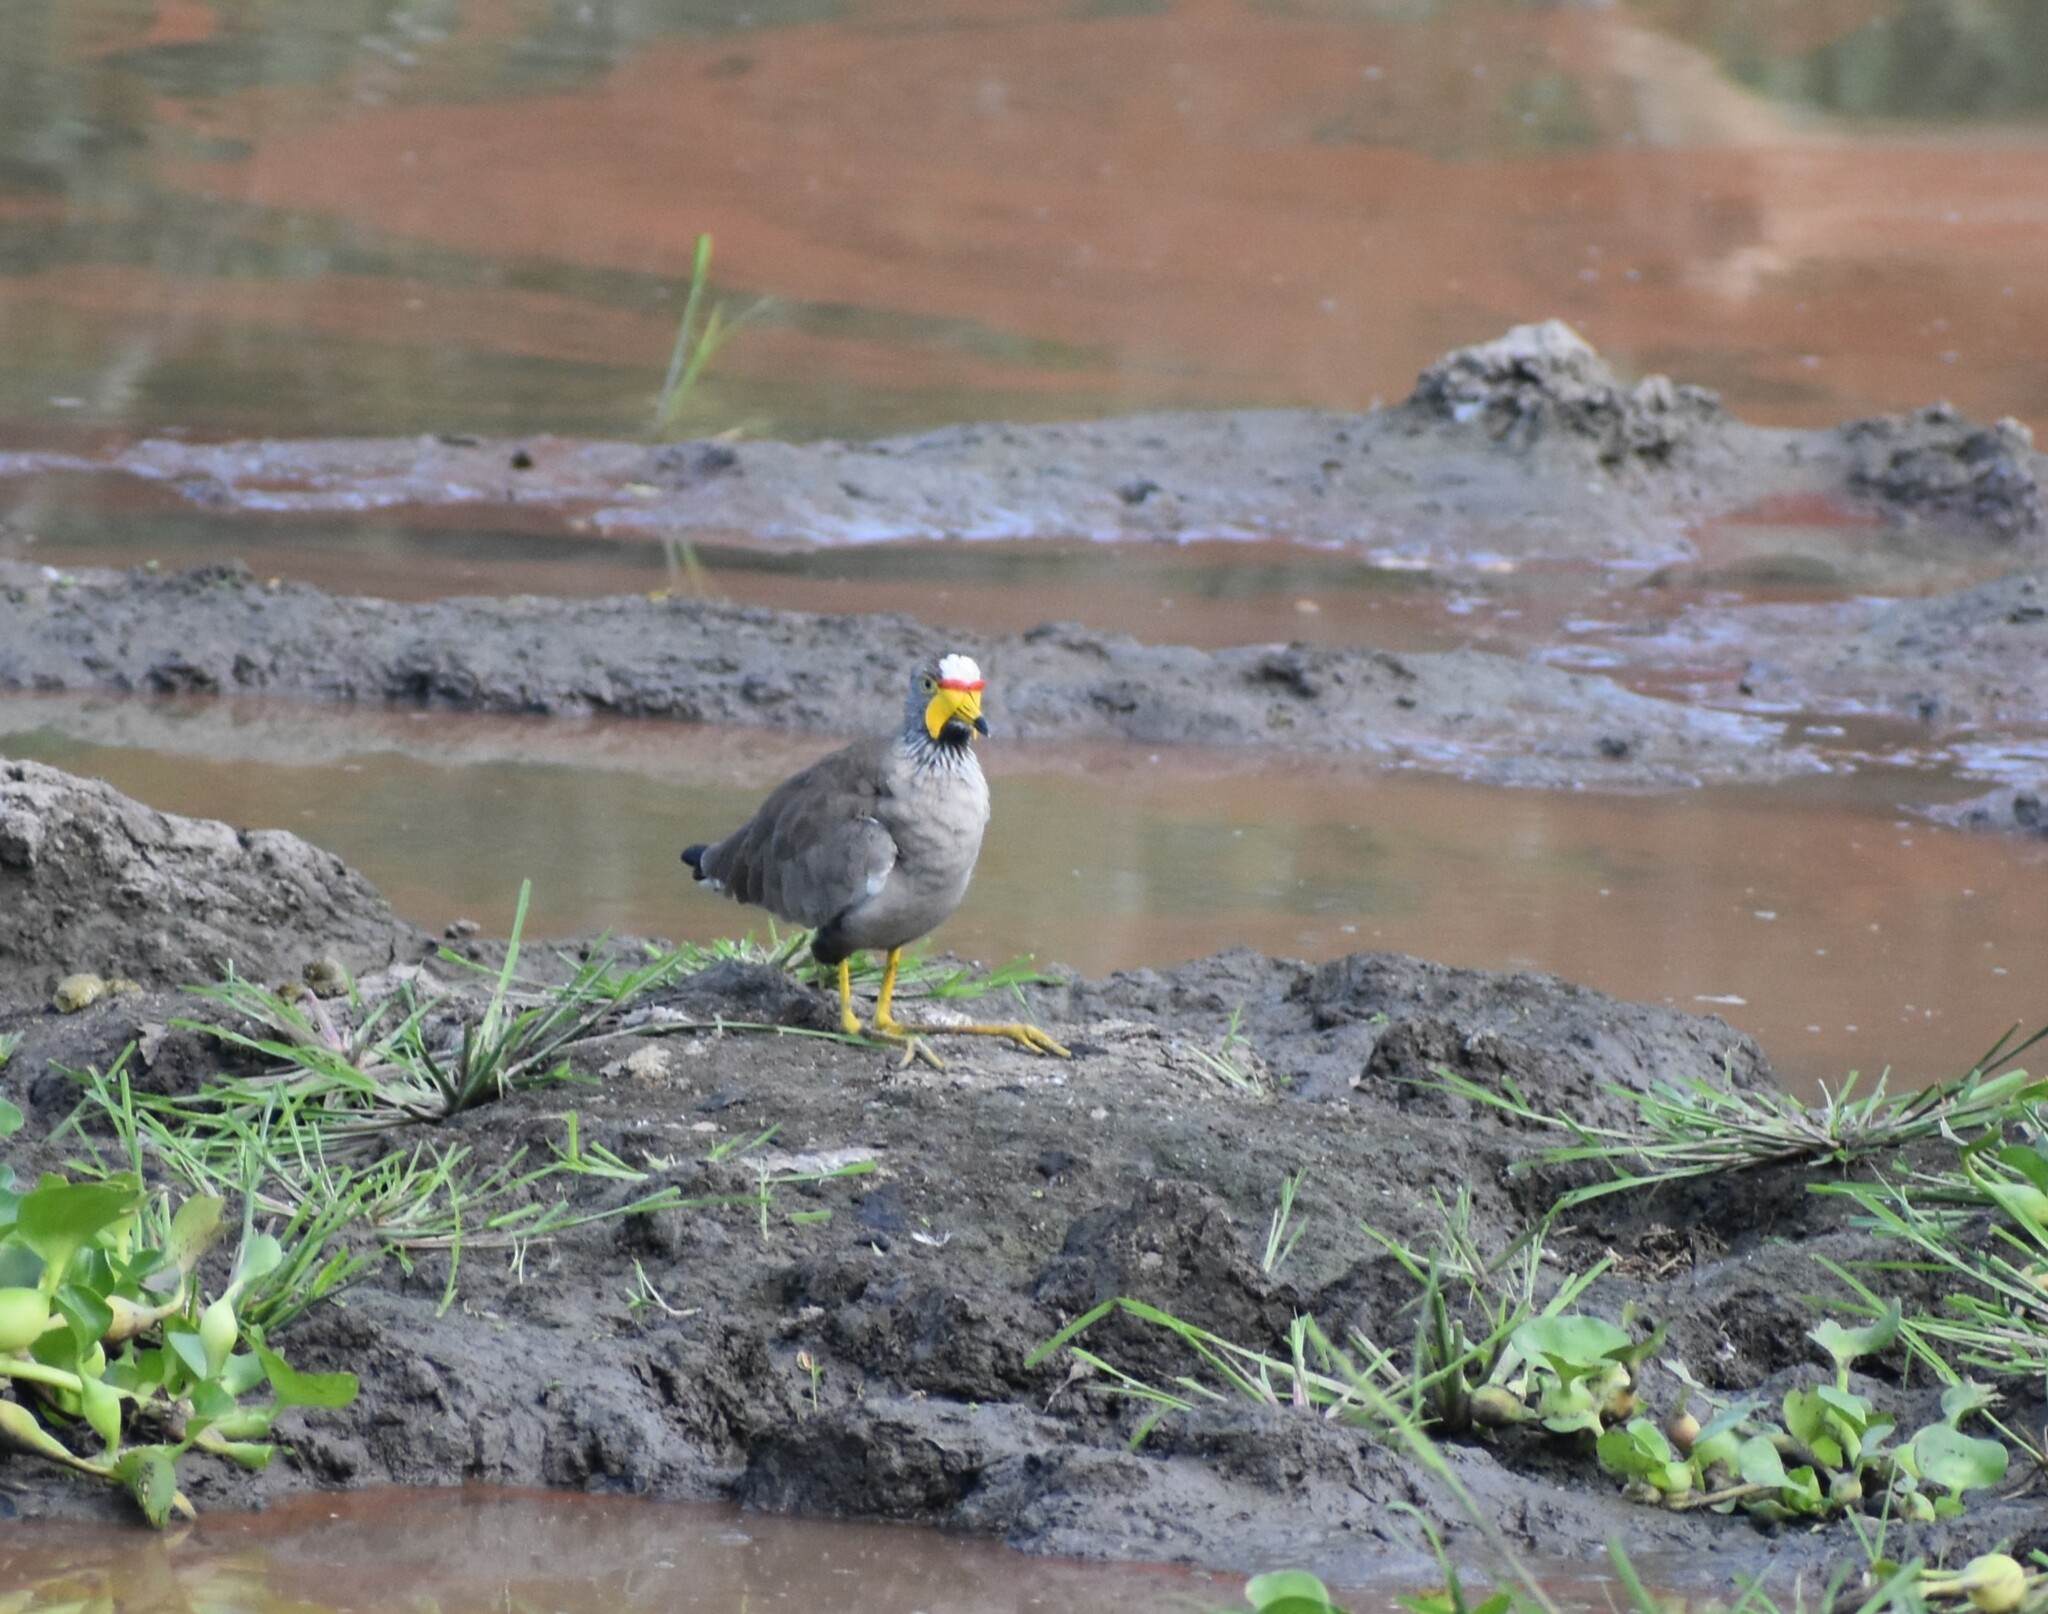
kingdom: Animalia
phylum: Chordata
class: Aves
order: Charadriiformes
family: Charadriidae
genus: Vanellus
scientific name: Vanellus senegallus
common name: African wattled lapwing
